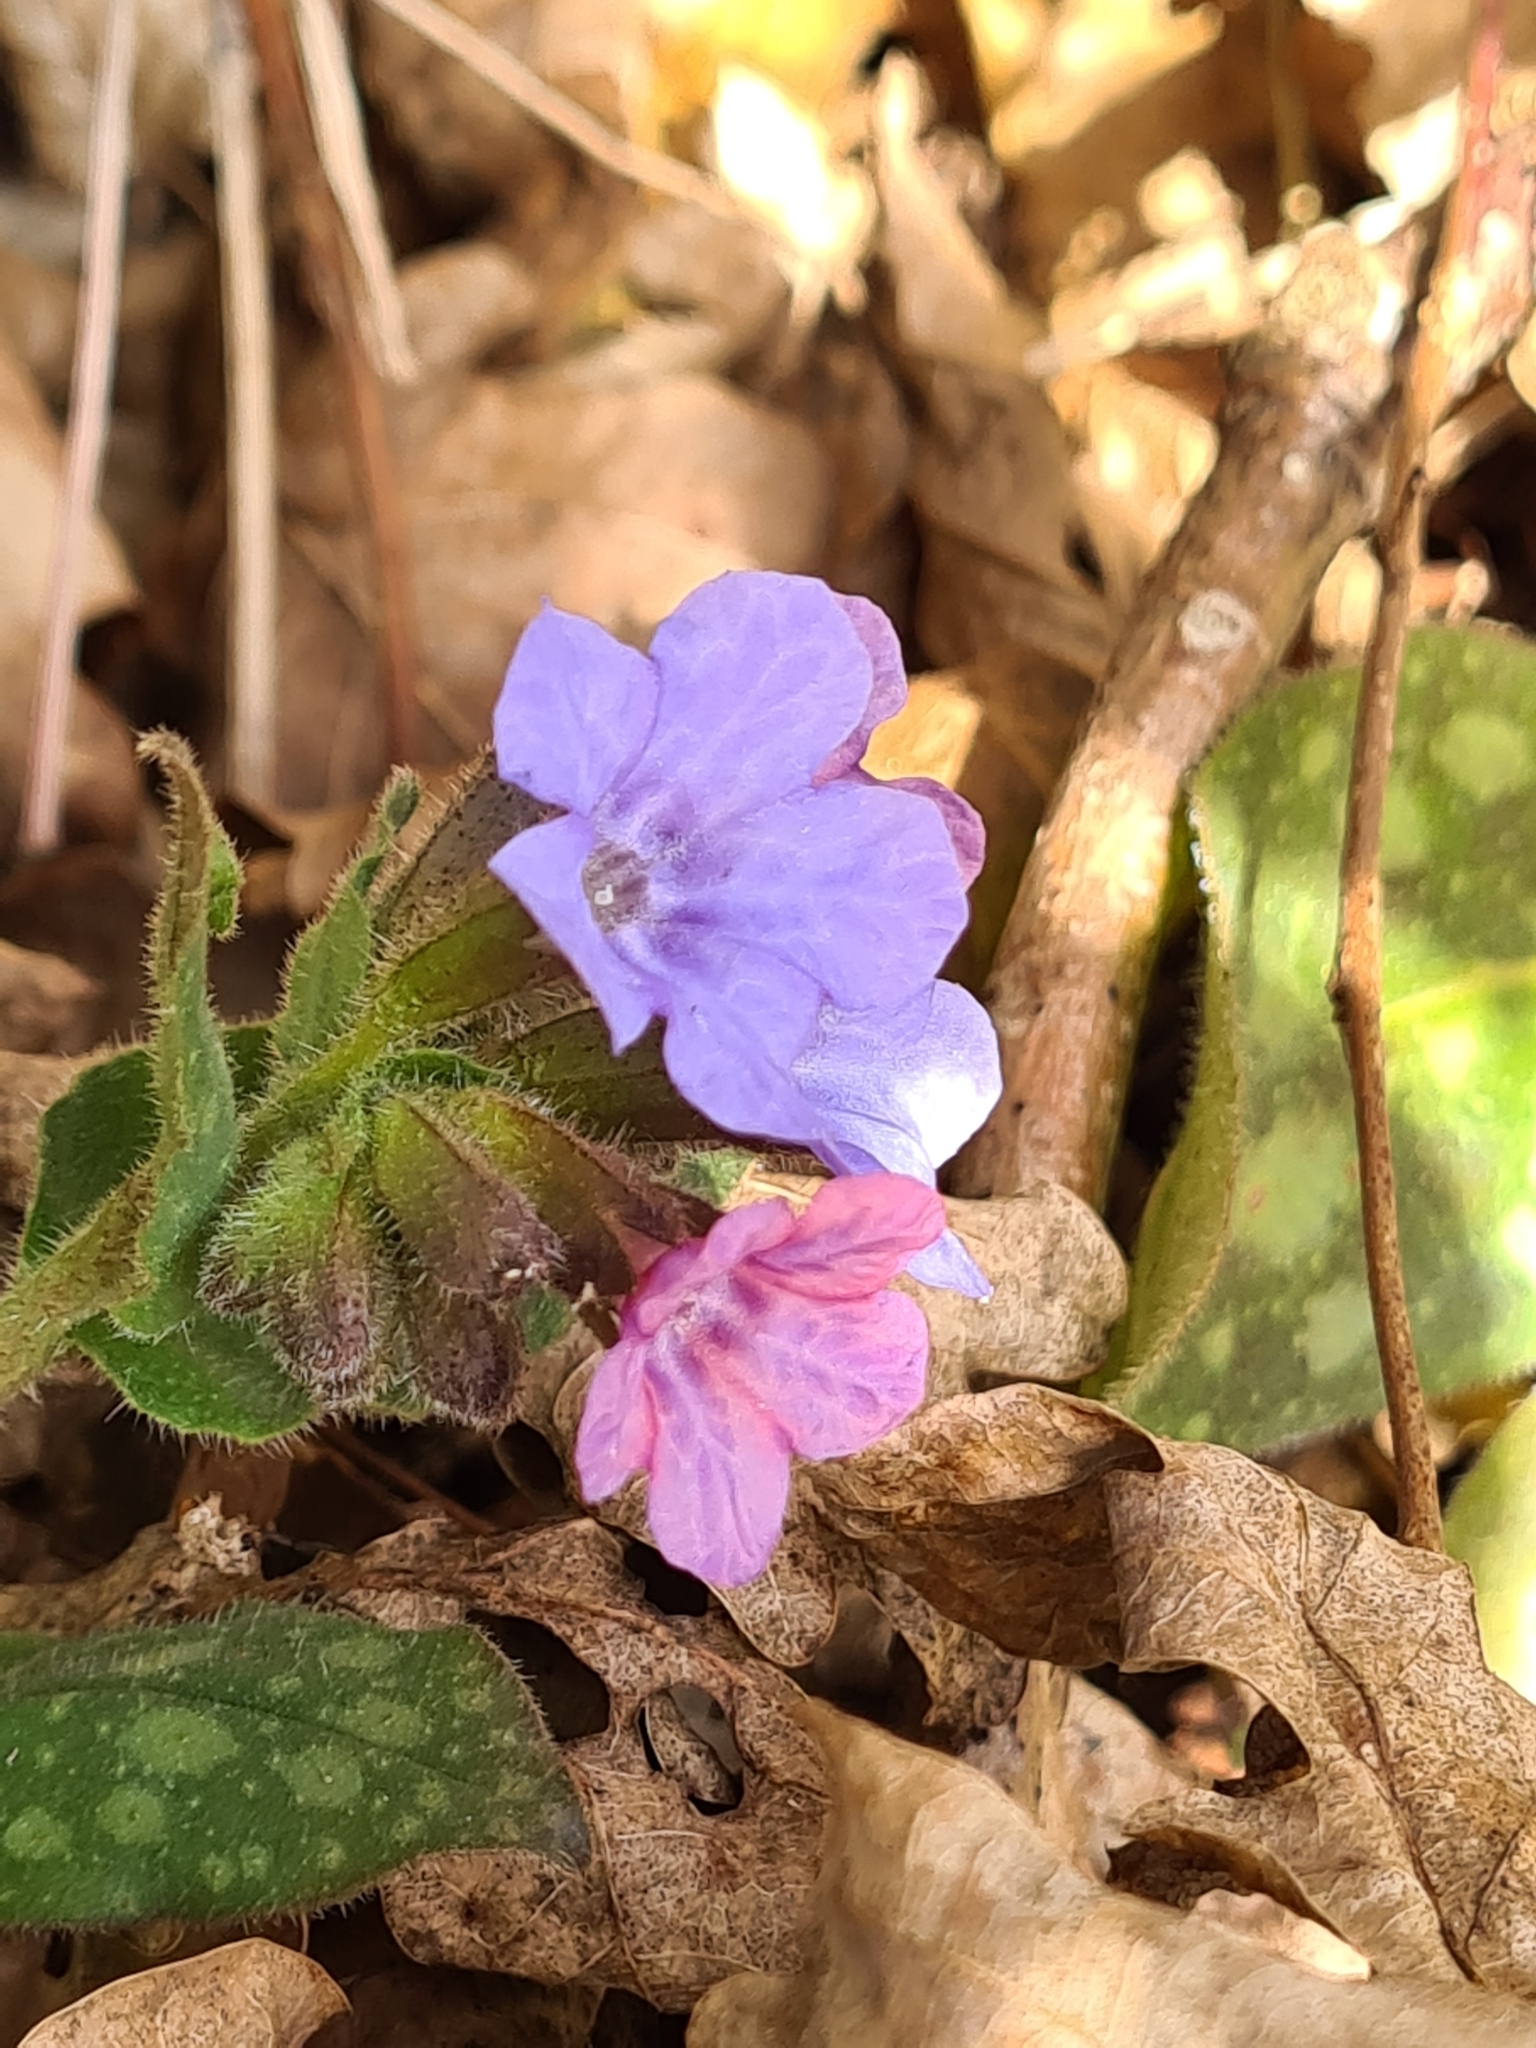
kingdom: Plantae
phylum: Tracheophyta
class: Magnoliopsida
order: Boraginales
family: Boraginaceae
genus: Pulmonaria
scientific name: Pulmonaria officinalis
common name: Lungwort
